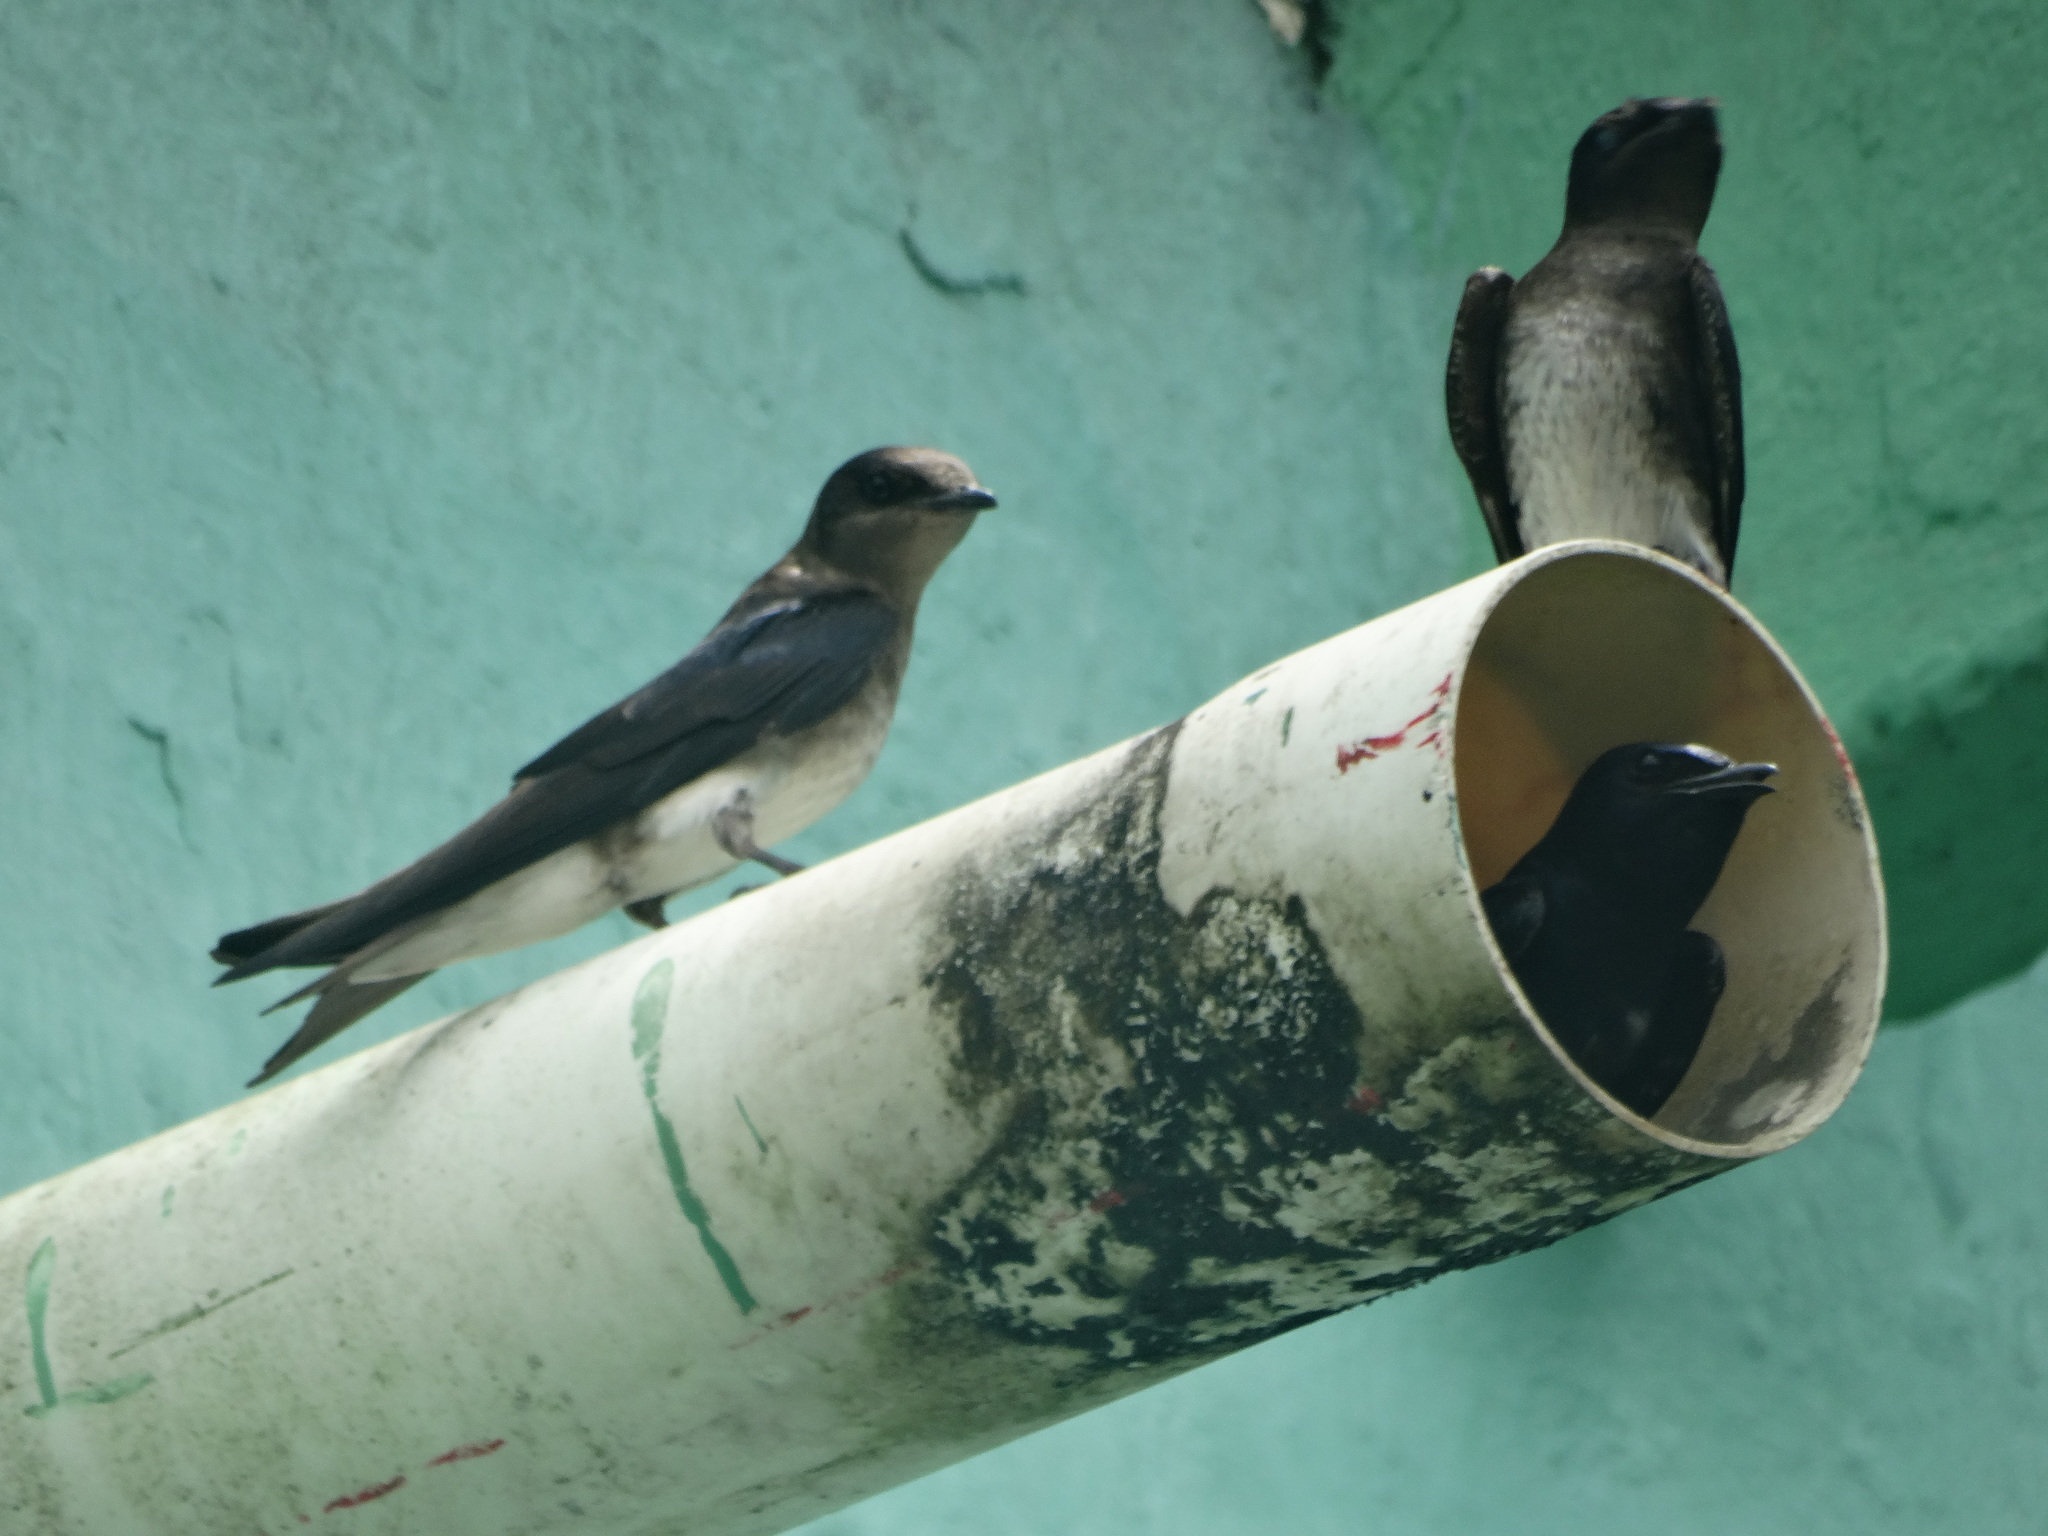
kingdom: Animalia
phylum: Chordata
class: Aves
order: Passeriformes
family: Hirundinidae
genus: Progne
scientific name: Progne cryptoleuca
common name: Cuban martin
